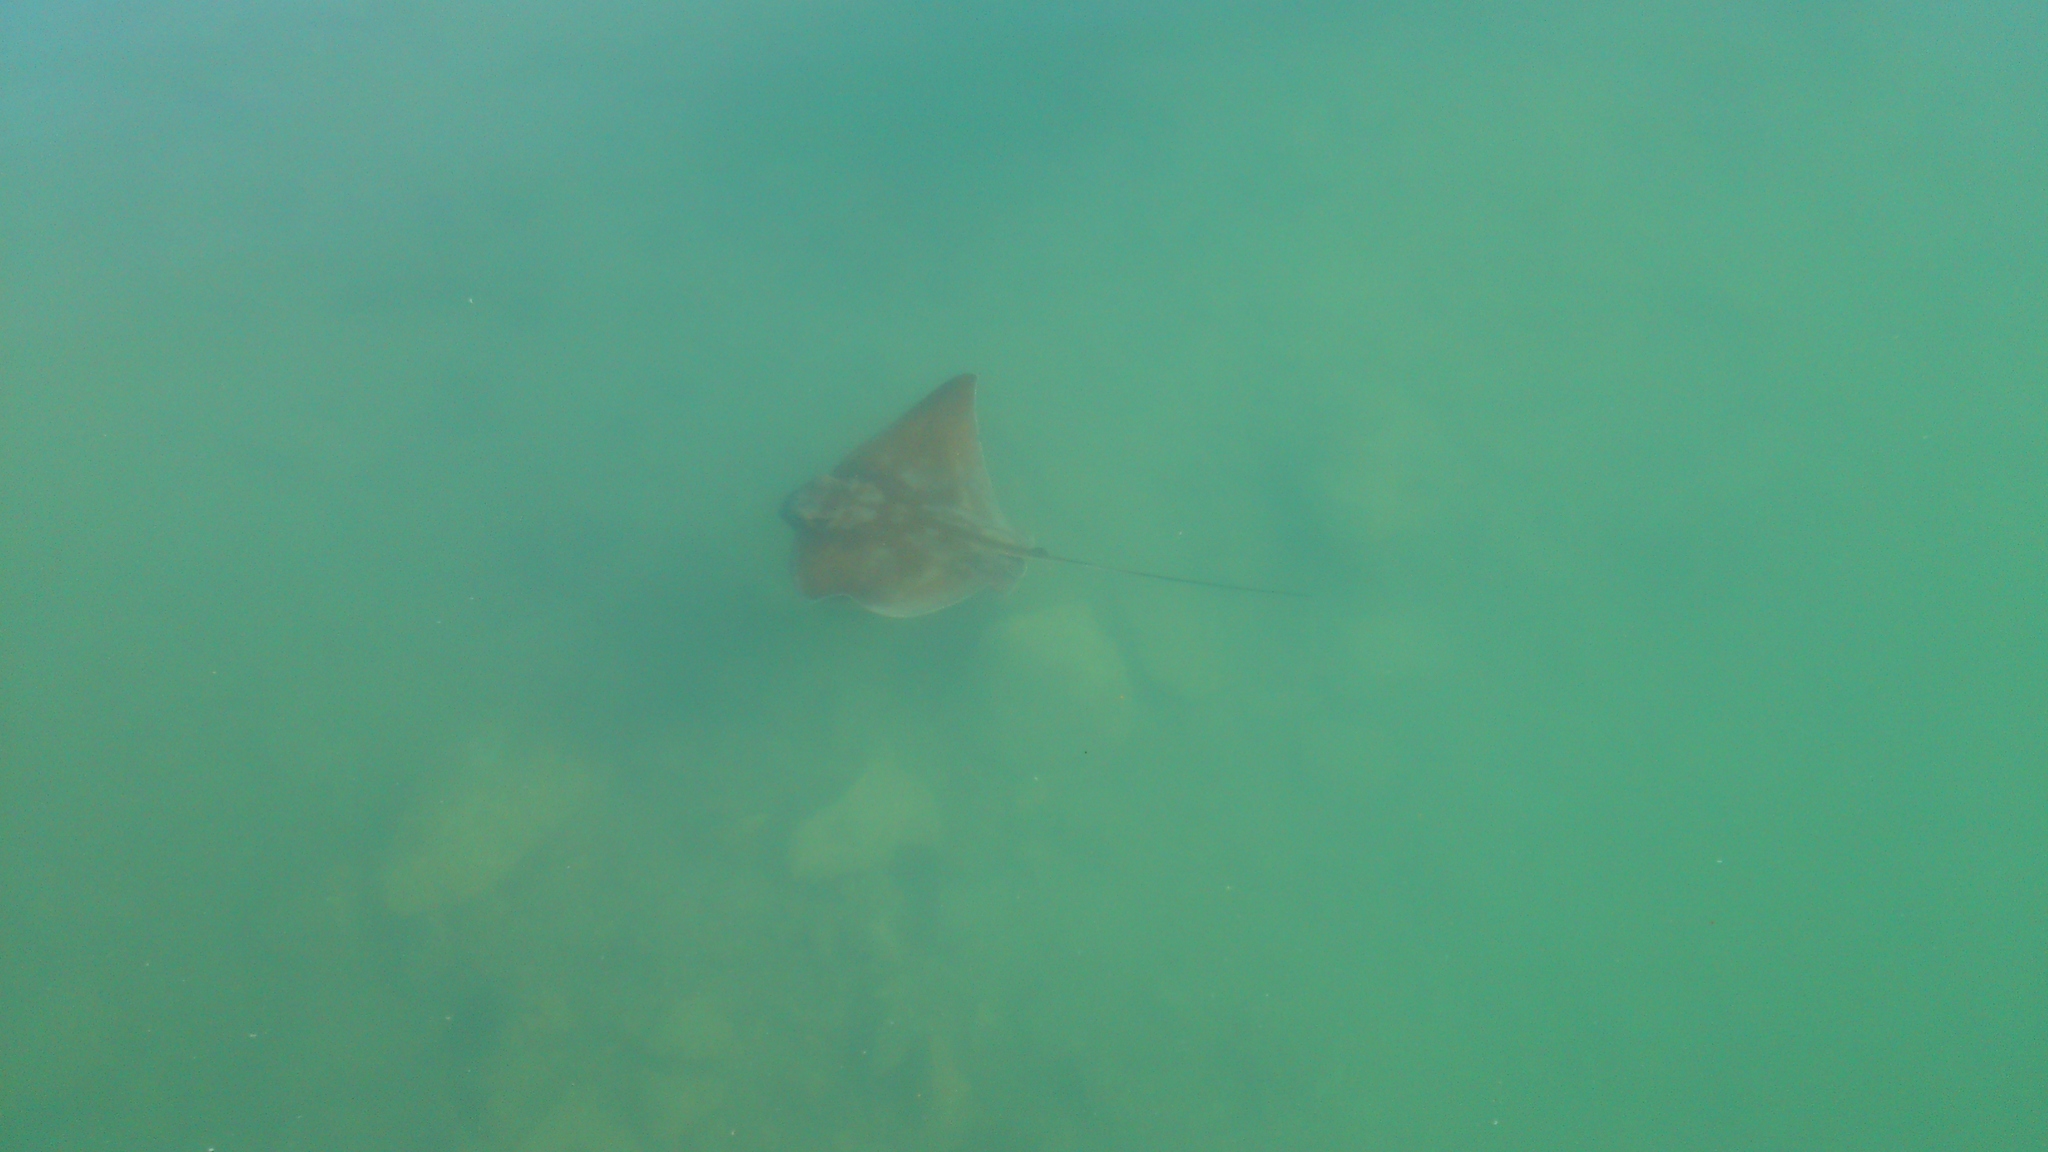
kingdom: Animalia
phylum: Chordata
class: Elasmobranchii
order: Myliobatiformes
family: Myliobatidae
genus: Myliobatis
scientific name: Myliobatis tenuicaudatus
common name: Eagle ray
